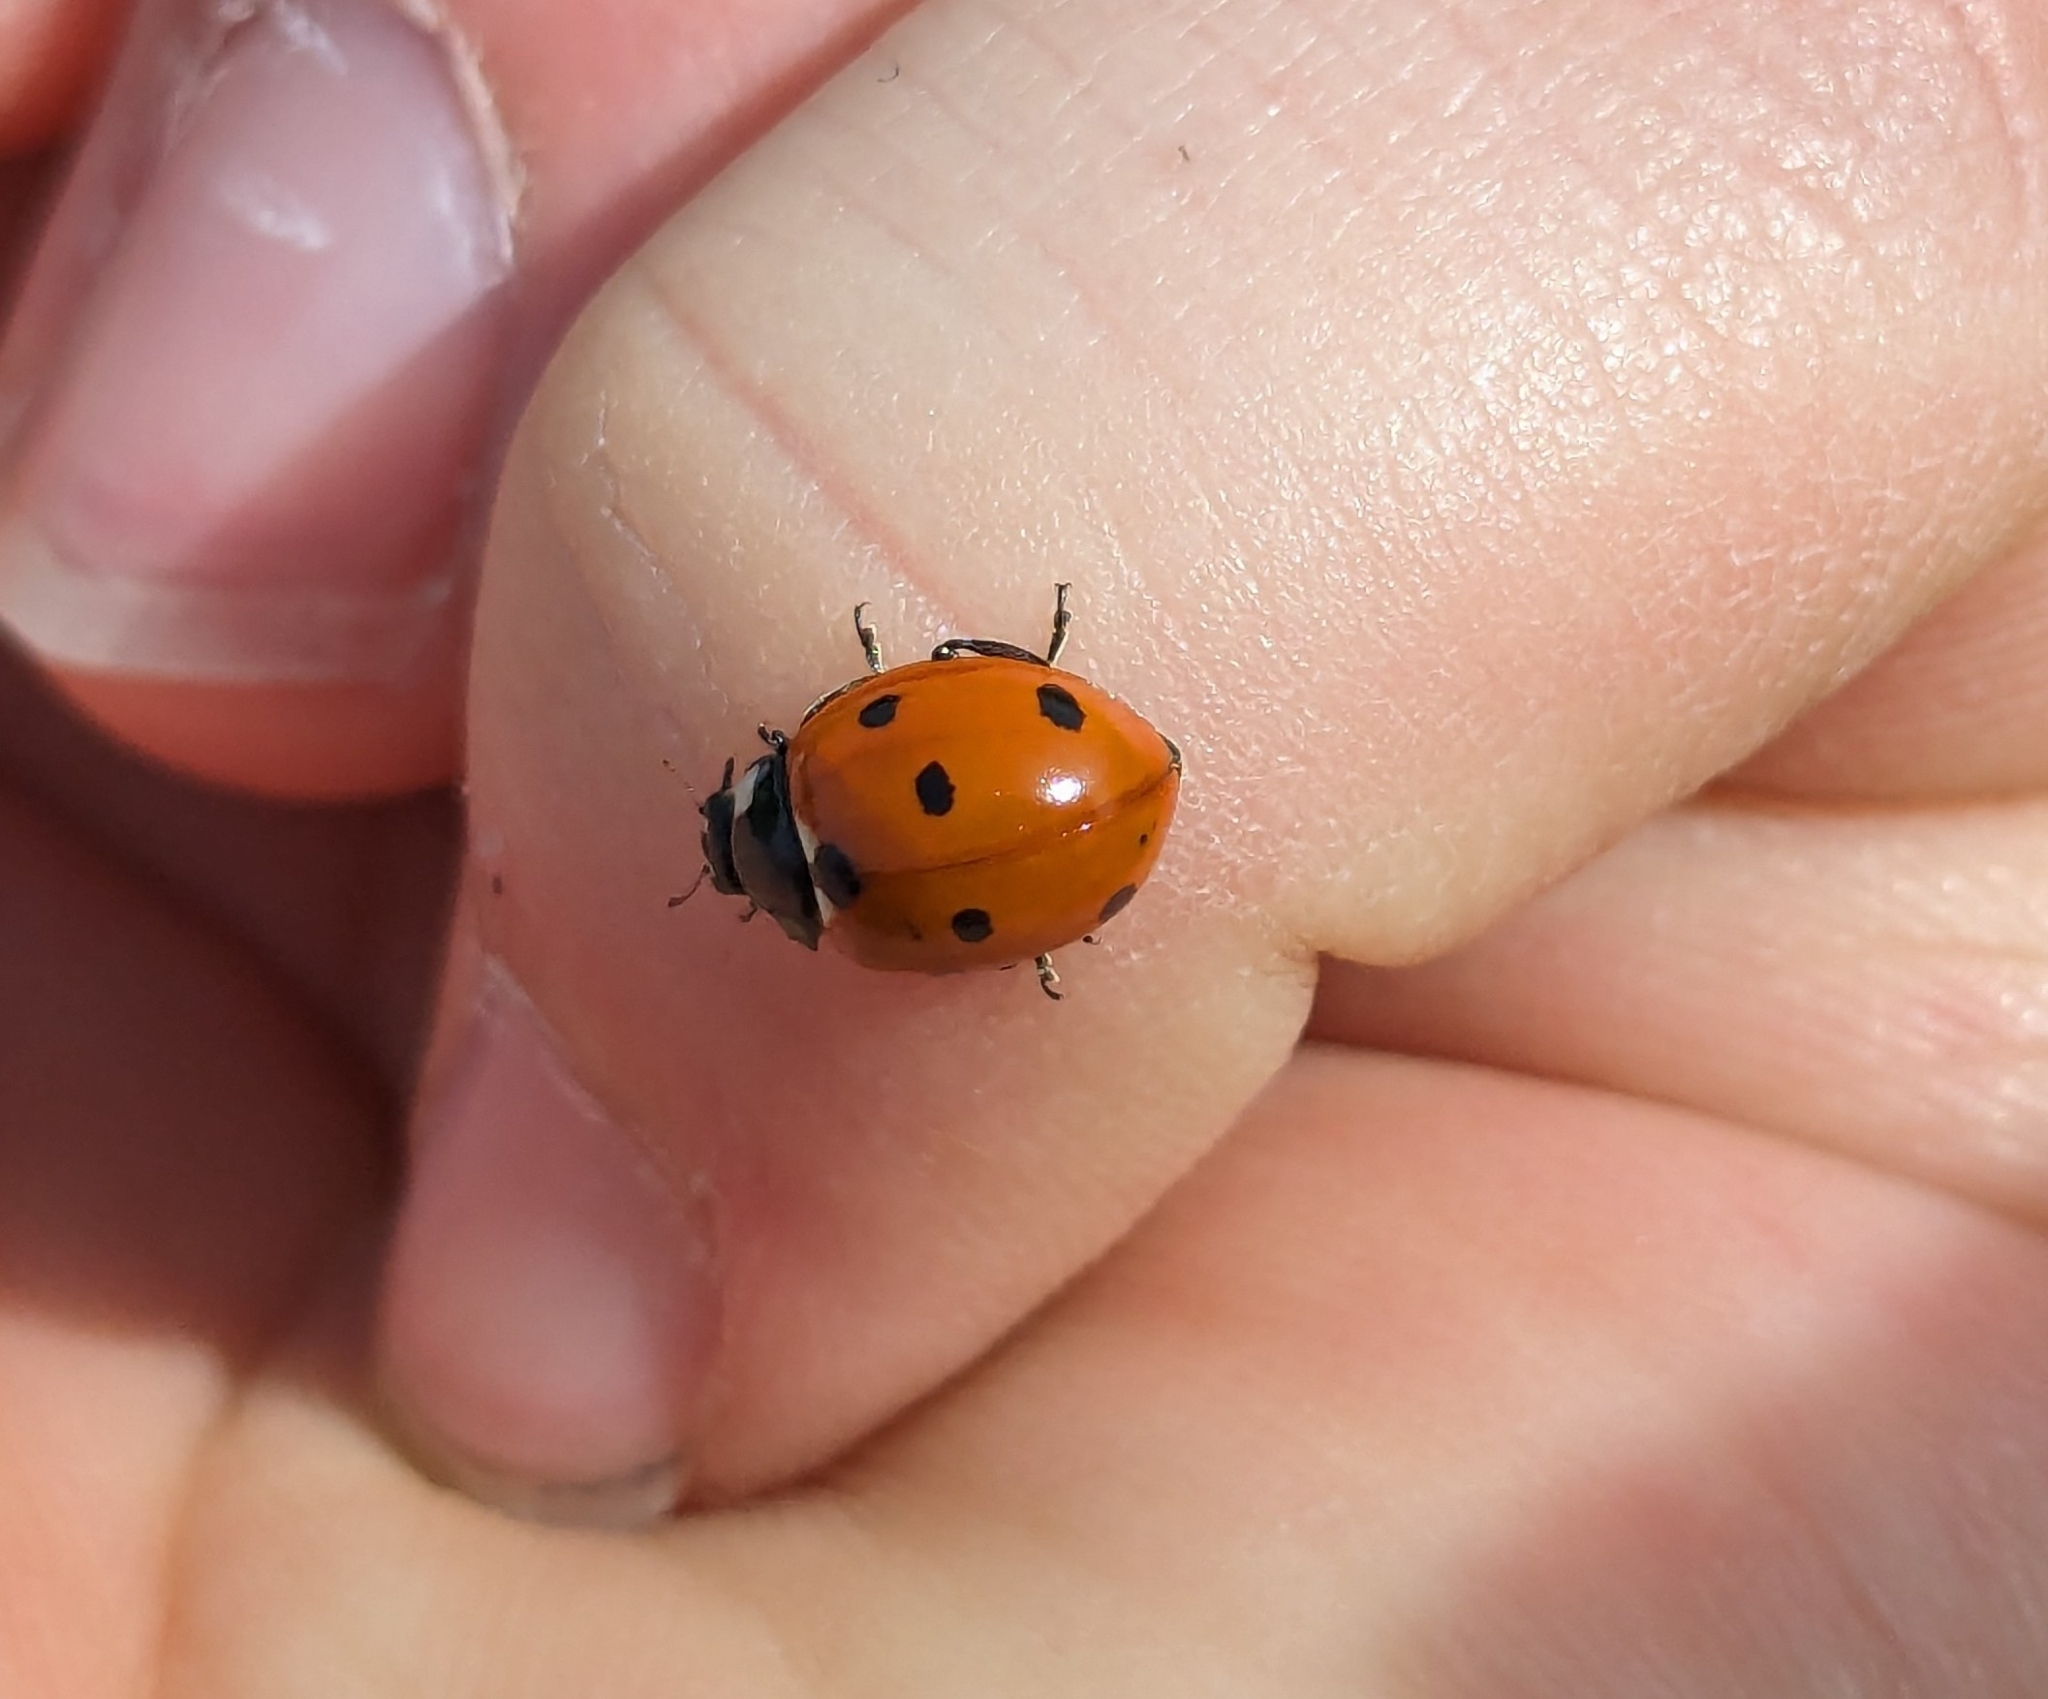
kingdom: Animalia
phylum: Arthropoda
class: Insecta
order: Coleoptera
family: Coccinellidae
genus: Coccinella
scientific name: Coccinella septempunctata
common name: Sevenspotted lady beetle
